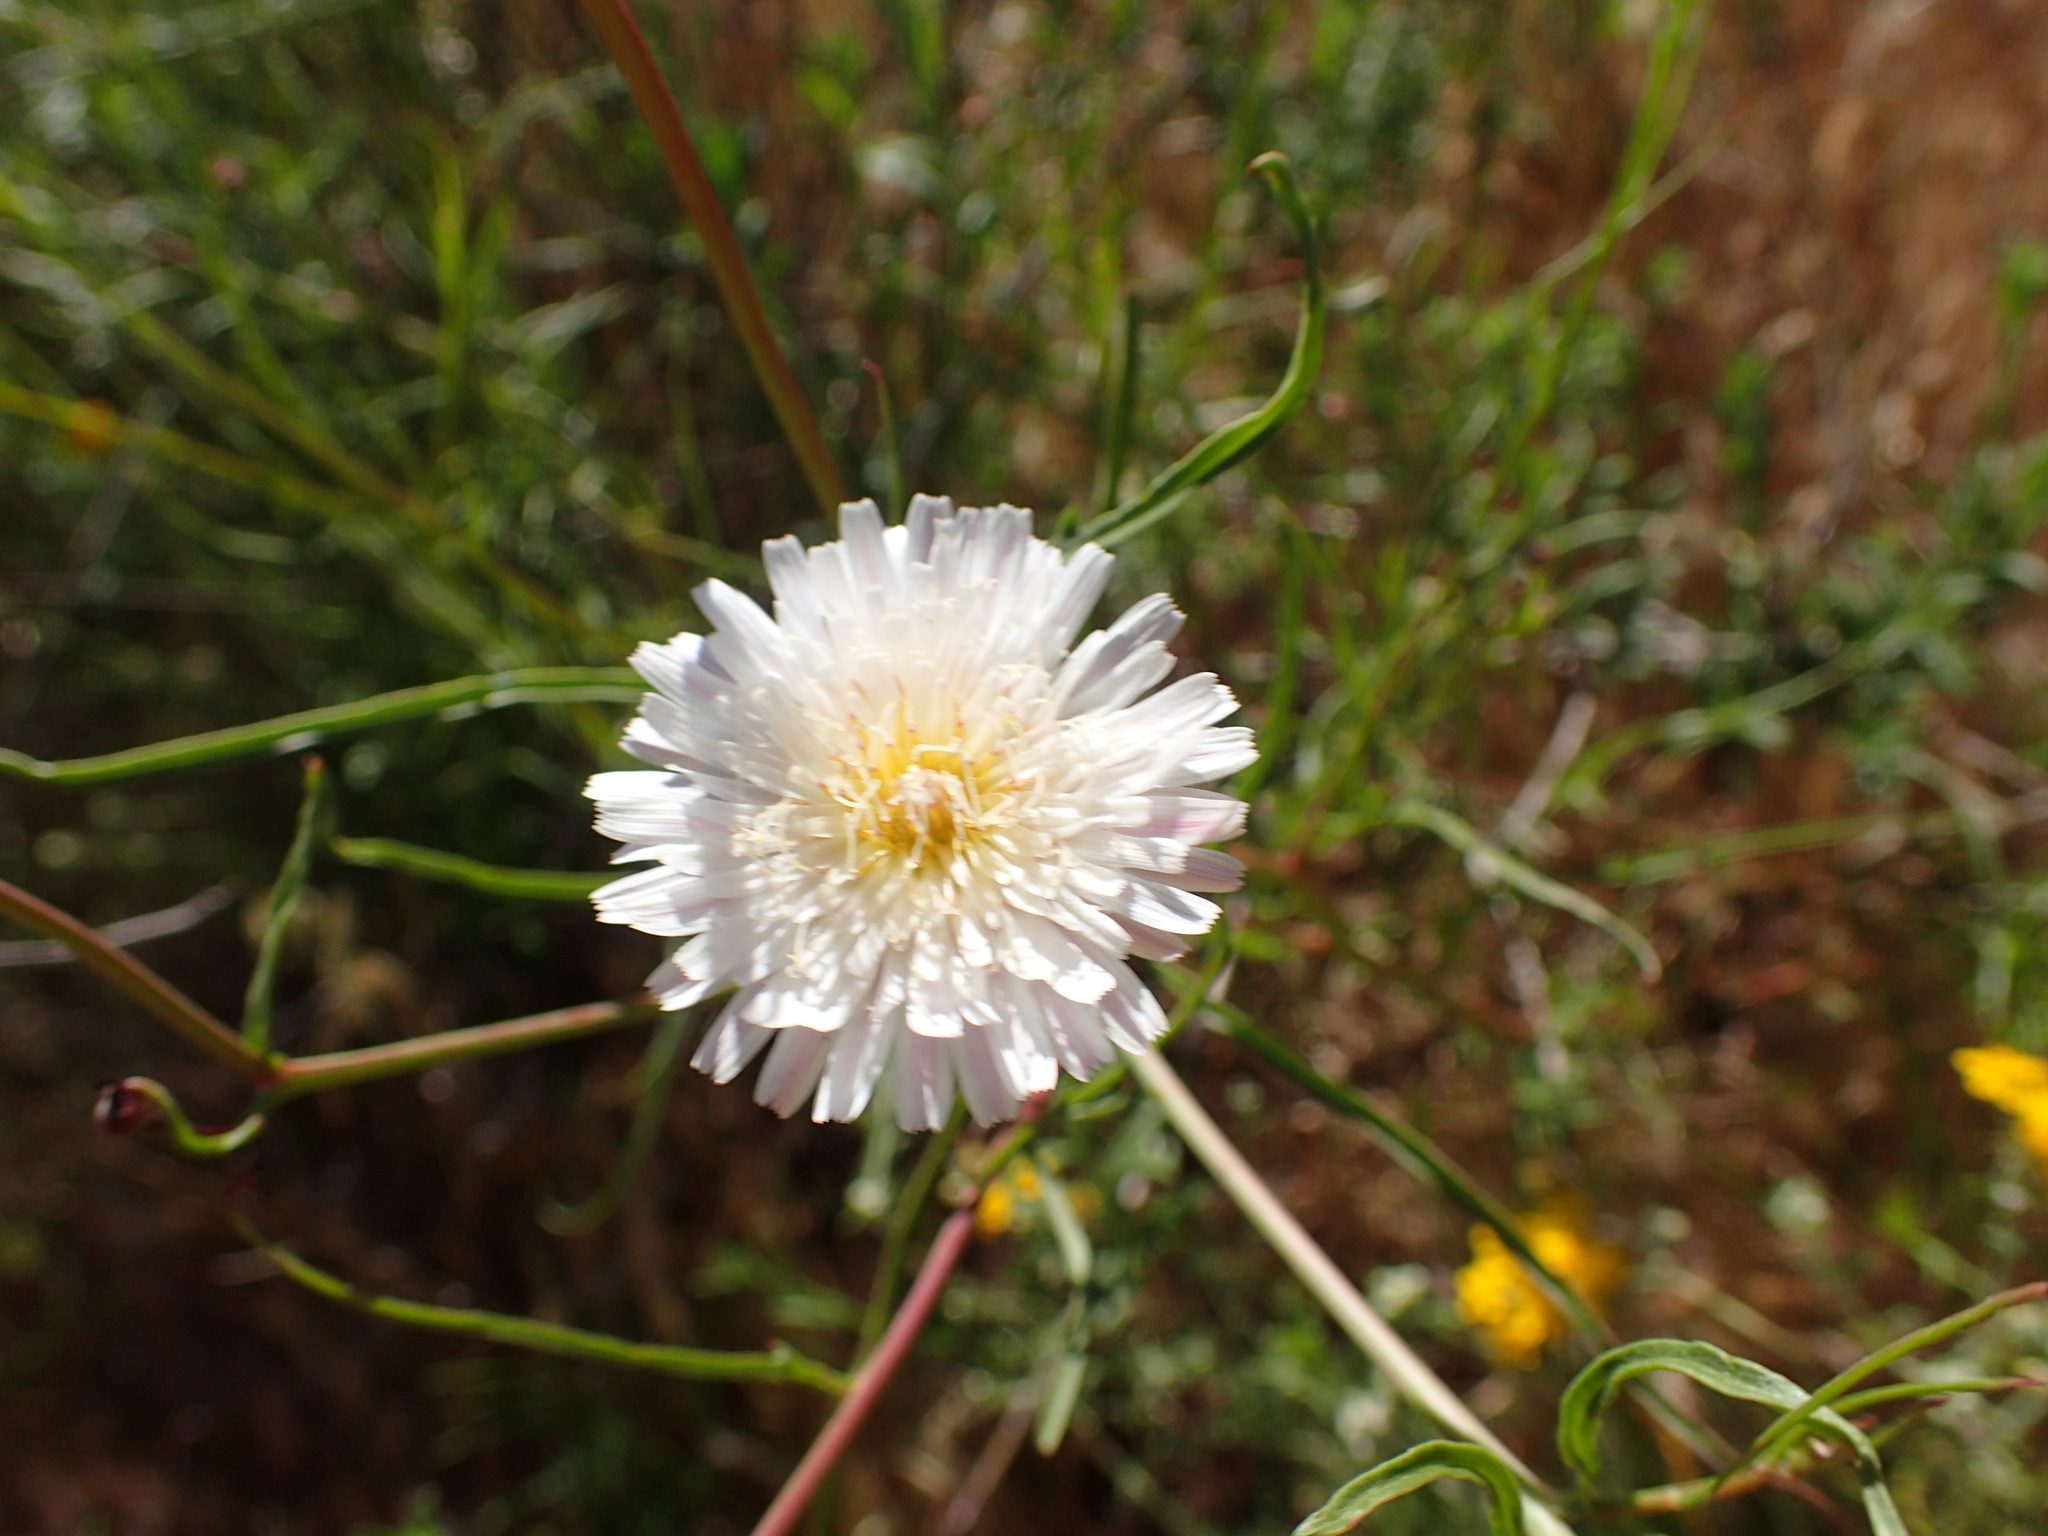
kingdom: Plantae
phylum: Tracheophyta
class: Magnoliopsida
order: Asterales
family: Asteraceae
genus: Malacothrix
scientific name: Malacothrix saxatilis
